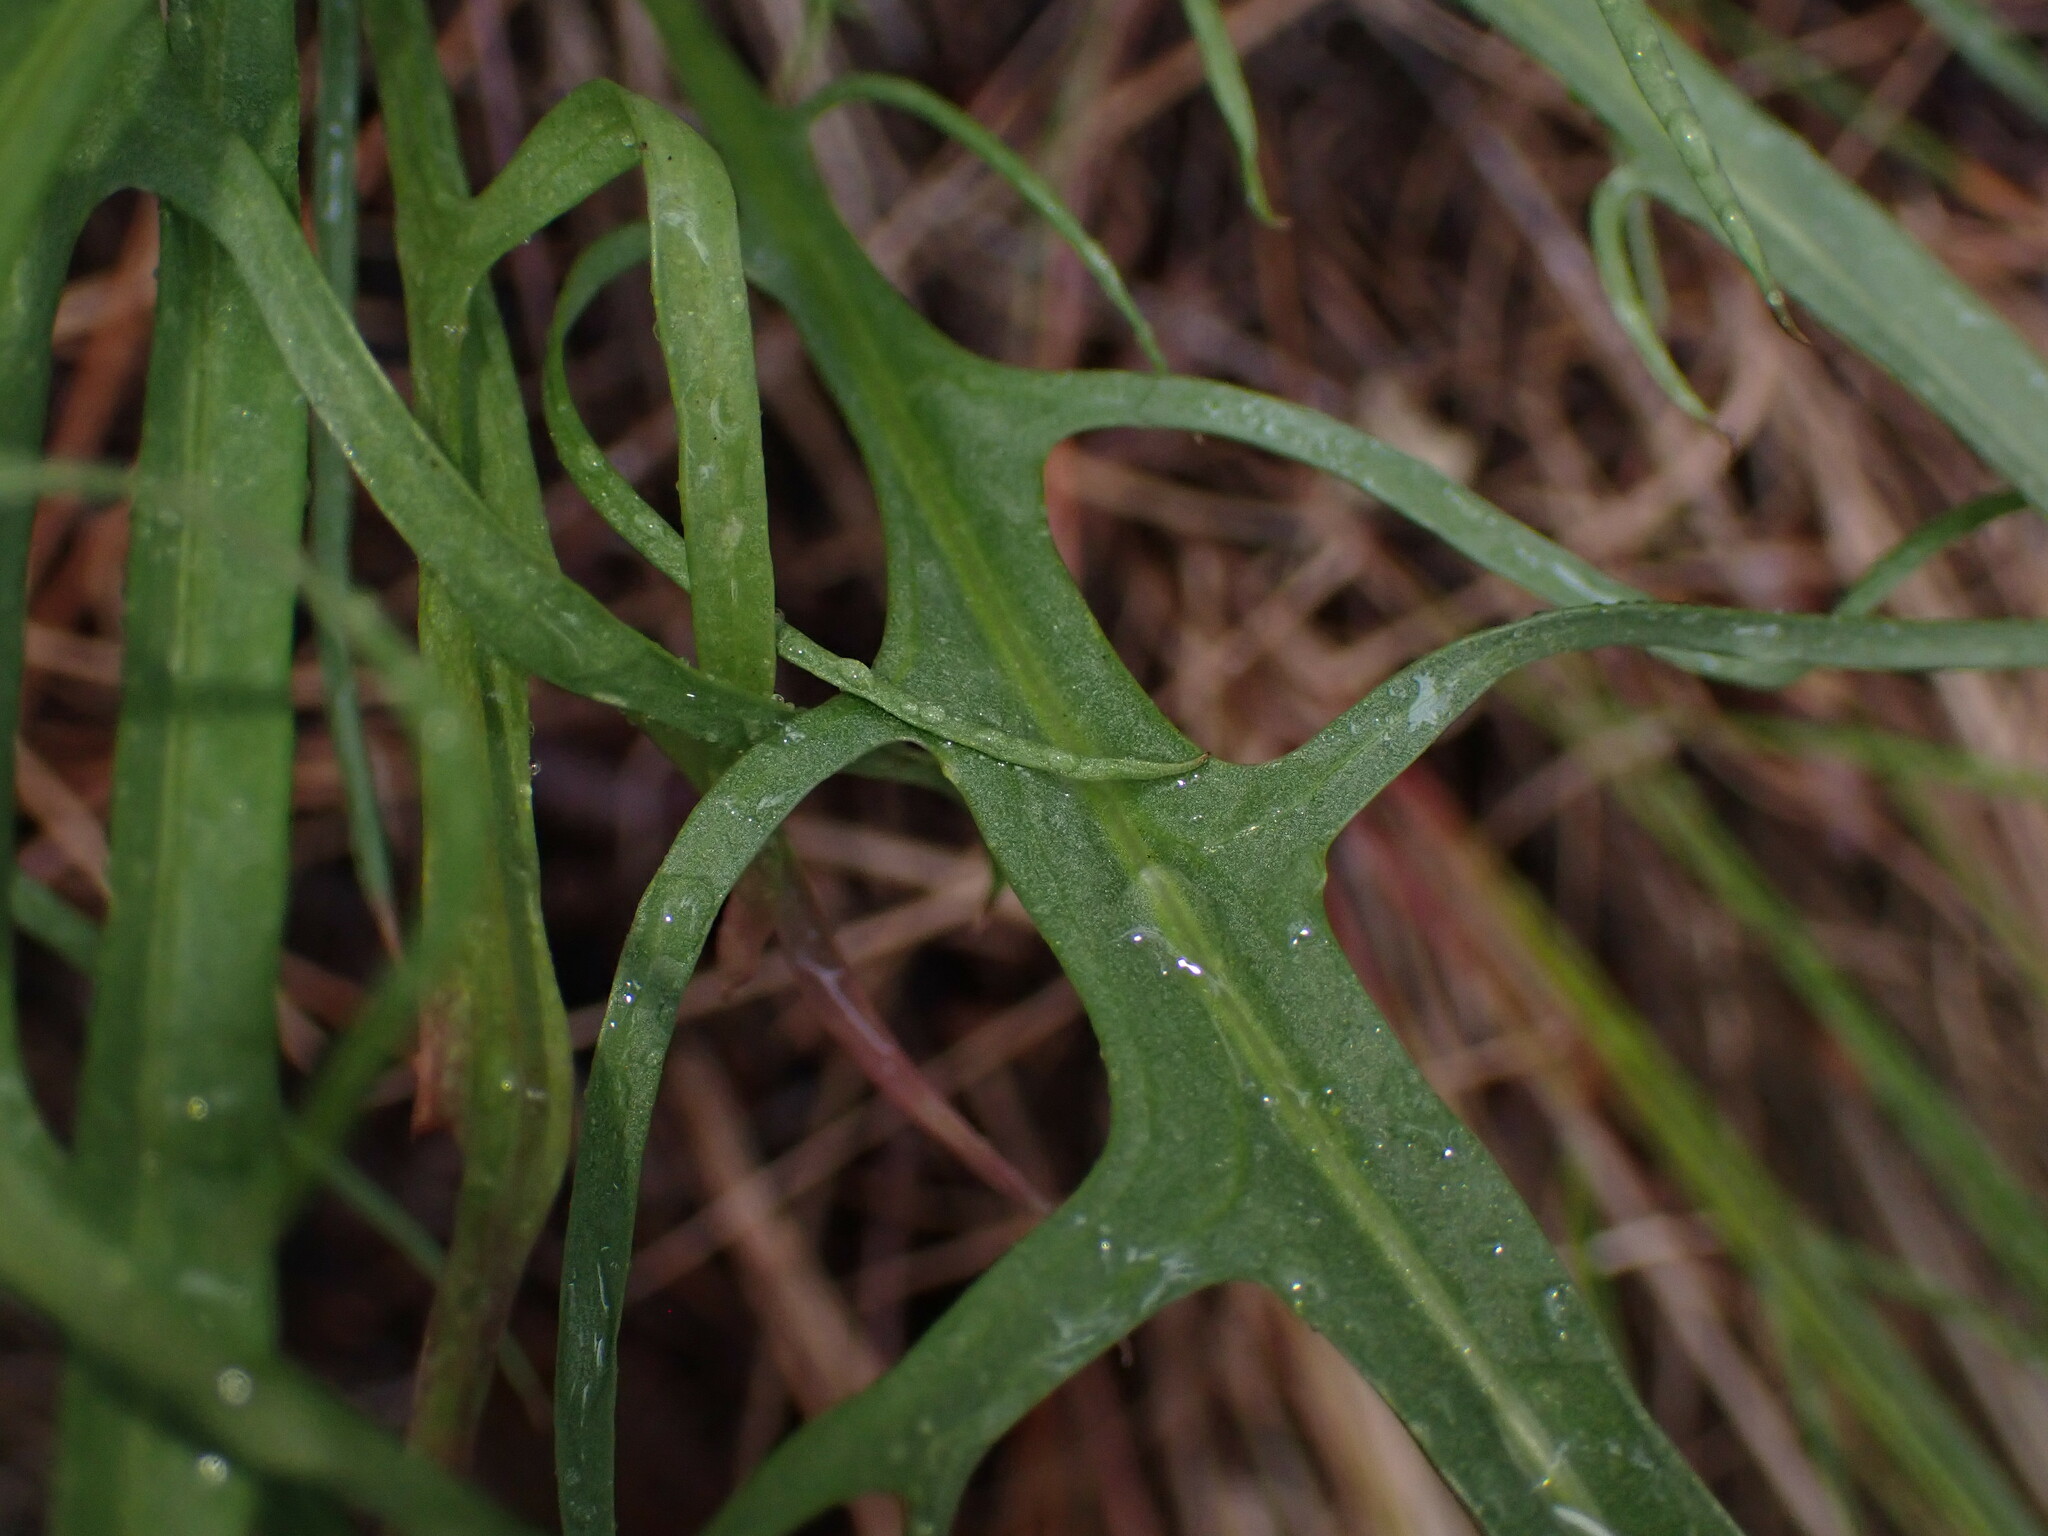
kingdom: Plantae
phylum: Tracheophyta
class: Magnoliopsida
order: Asterales
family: Asteraceae
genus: Crepis
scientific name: Crepis atribarba
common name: Dark hawk's-beard
